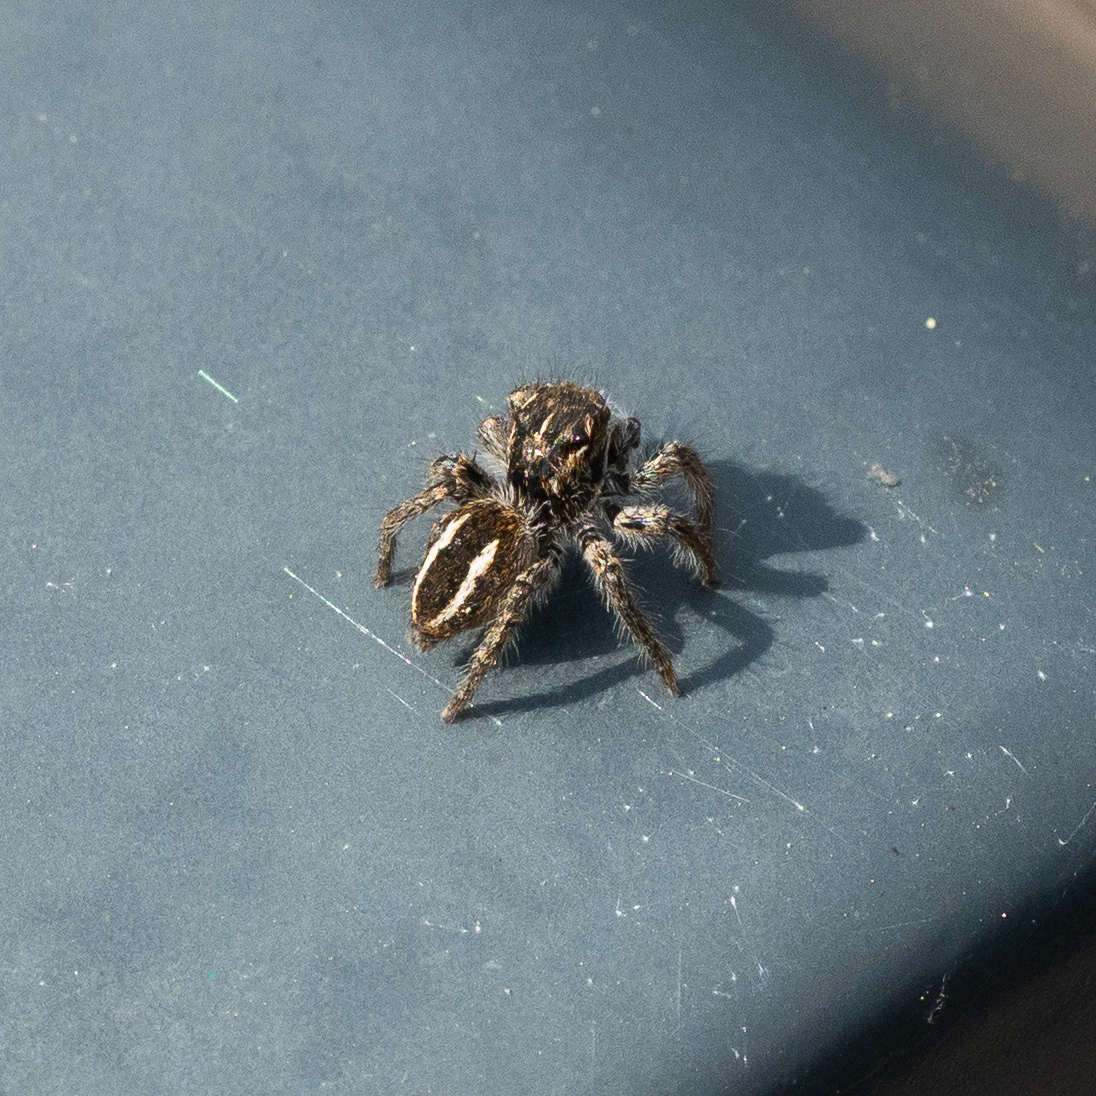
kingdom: Animalia
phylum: Arthropoda
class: Arachnida
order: Araneae
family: Salticidae
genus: Philaeus
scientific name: Philaeus chrysops
